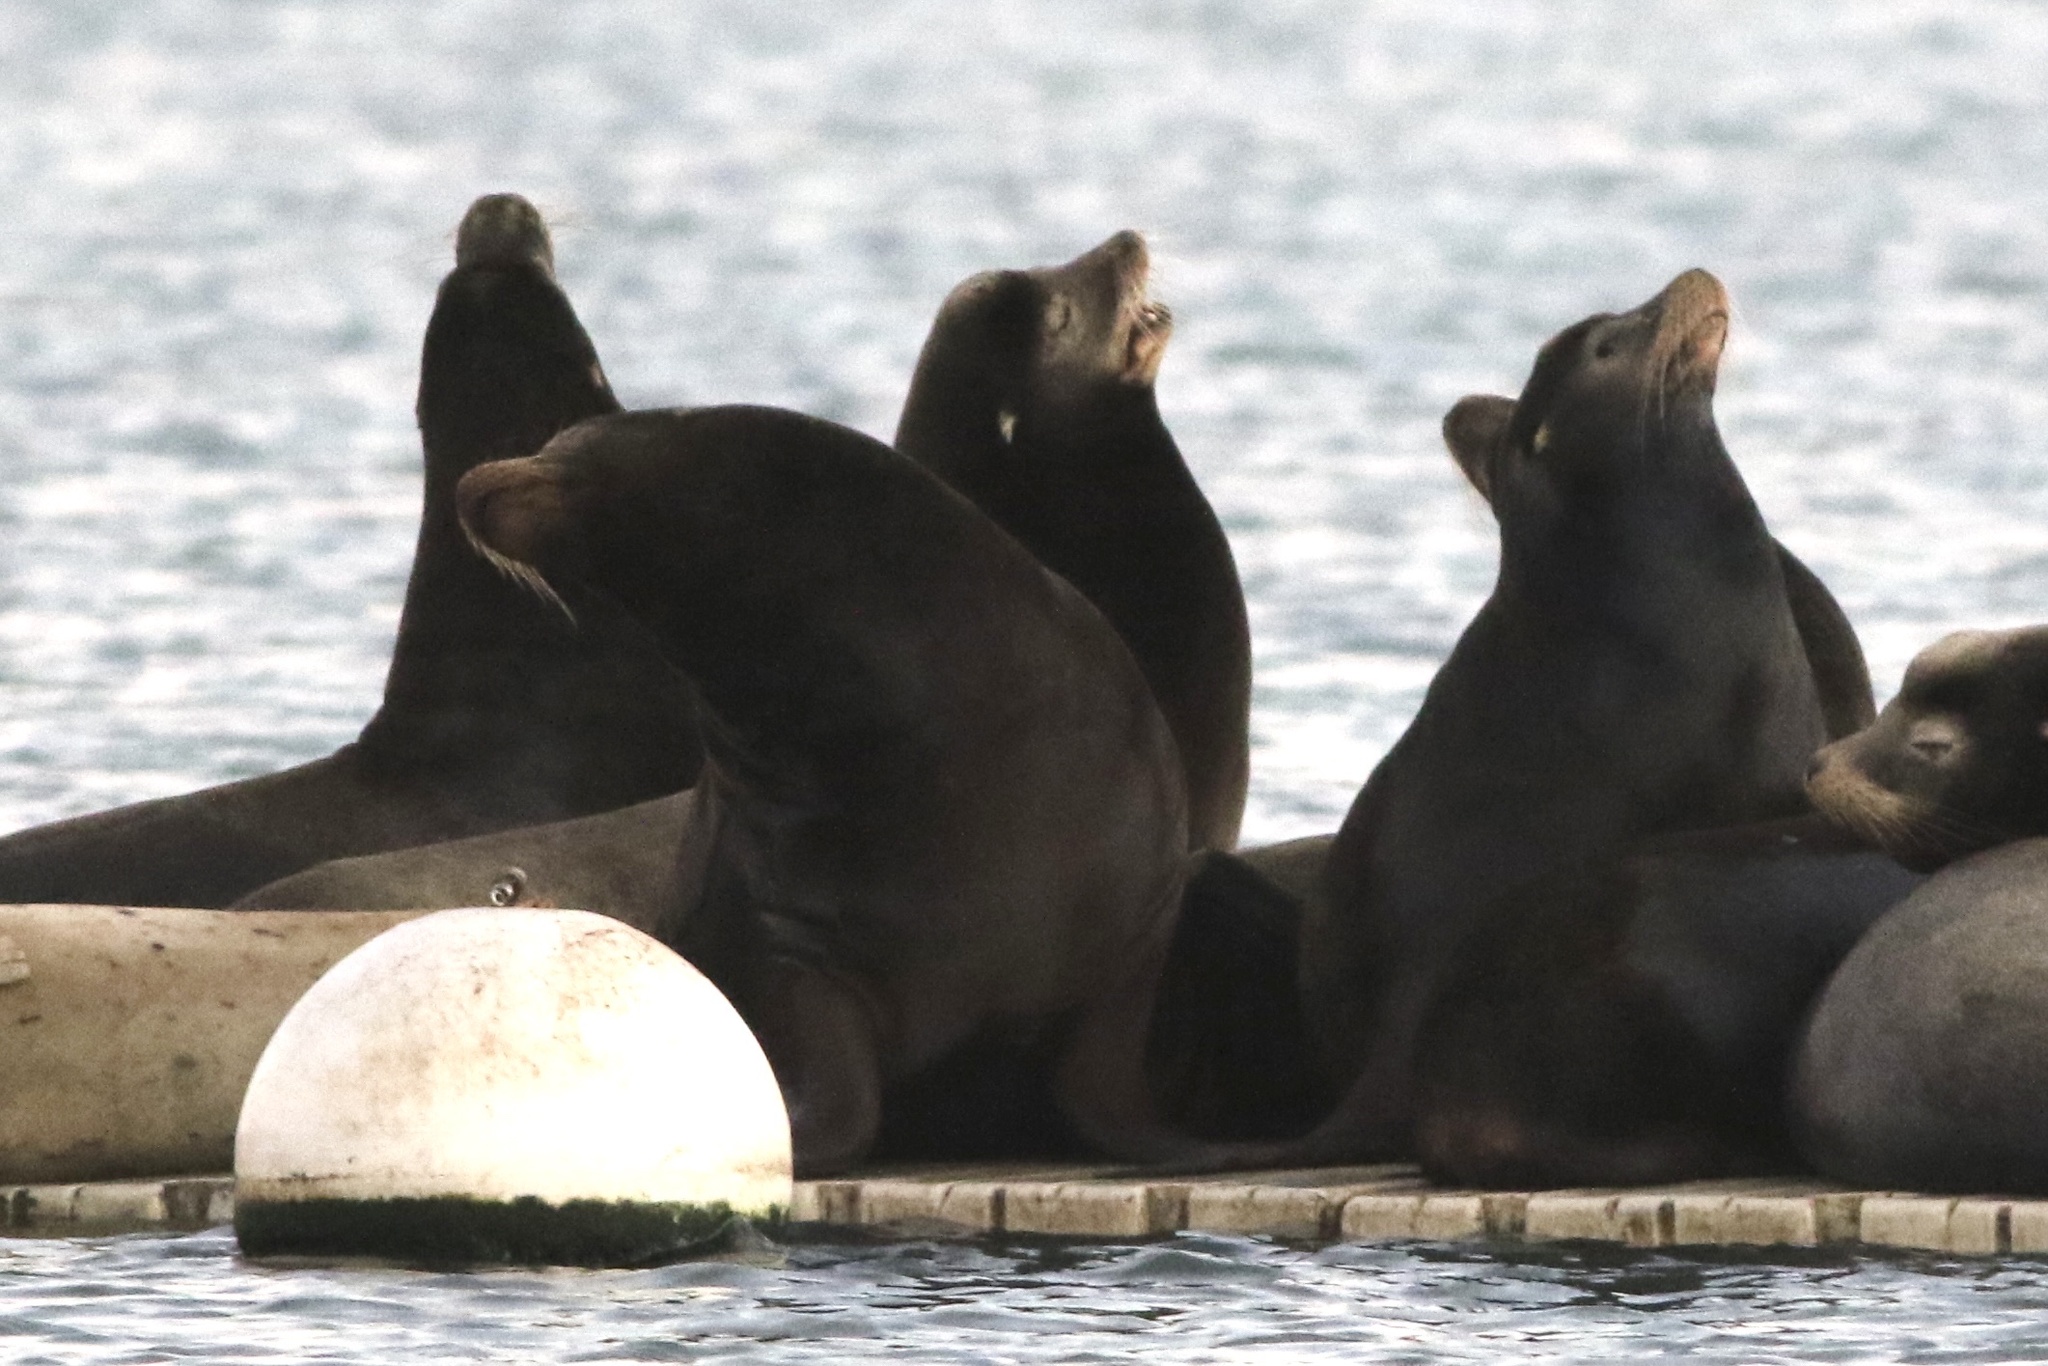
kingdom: Animalia
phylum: Chordata
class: Mammalia
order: Carnivora
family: Otariidae
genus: Zalophus
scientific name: Zalophus californianus
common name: California sea lion
